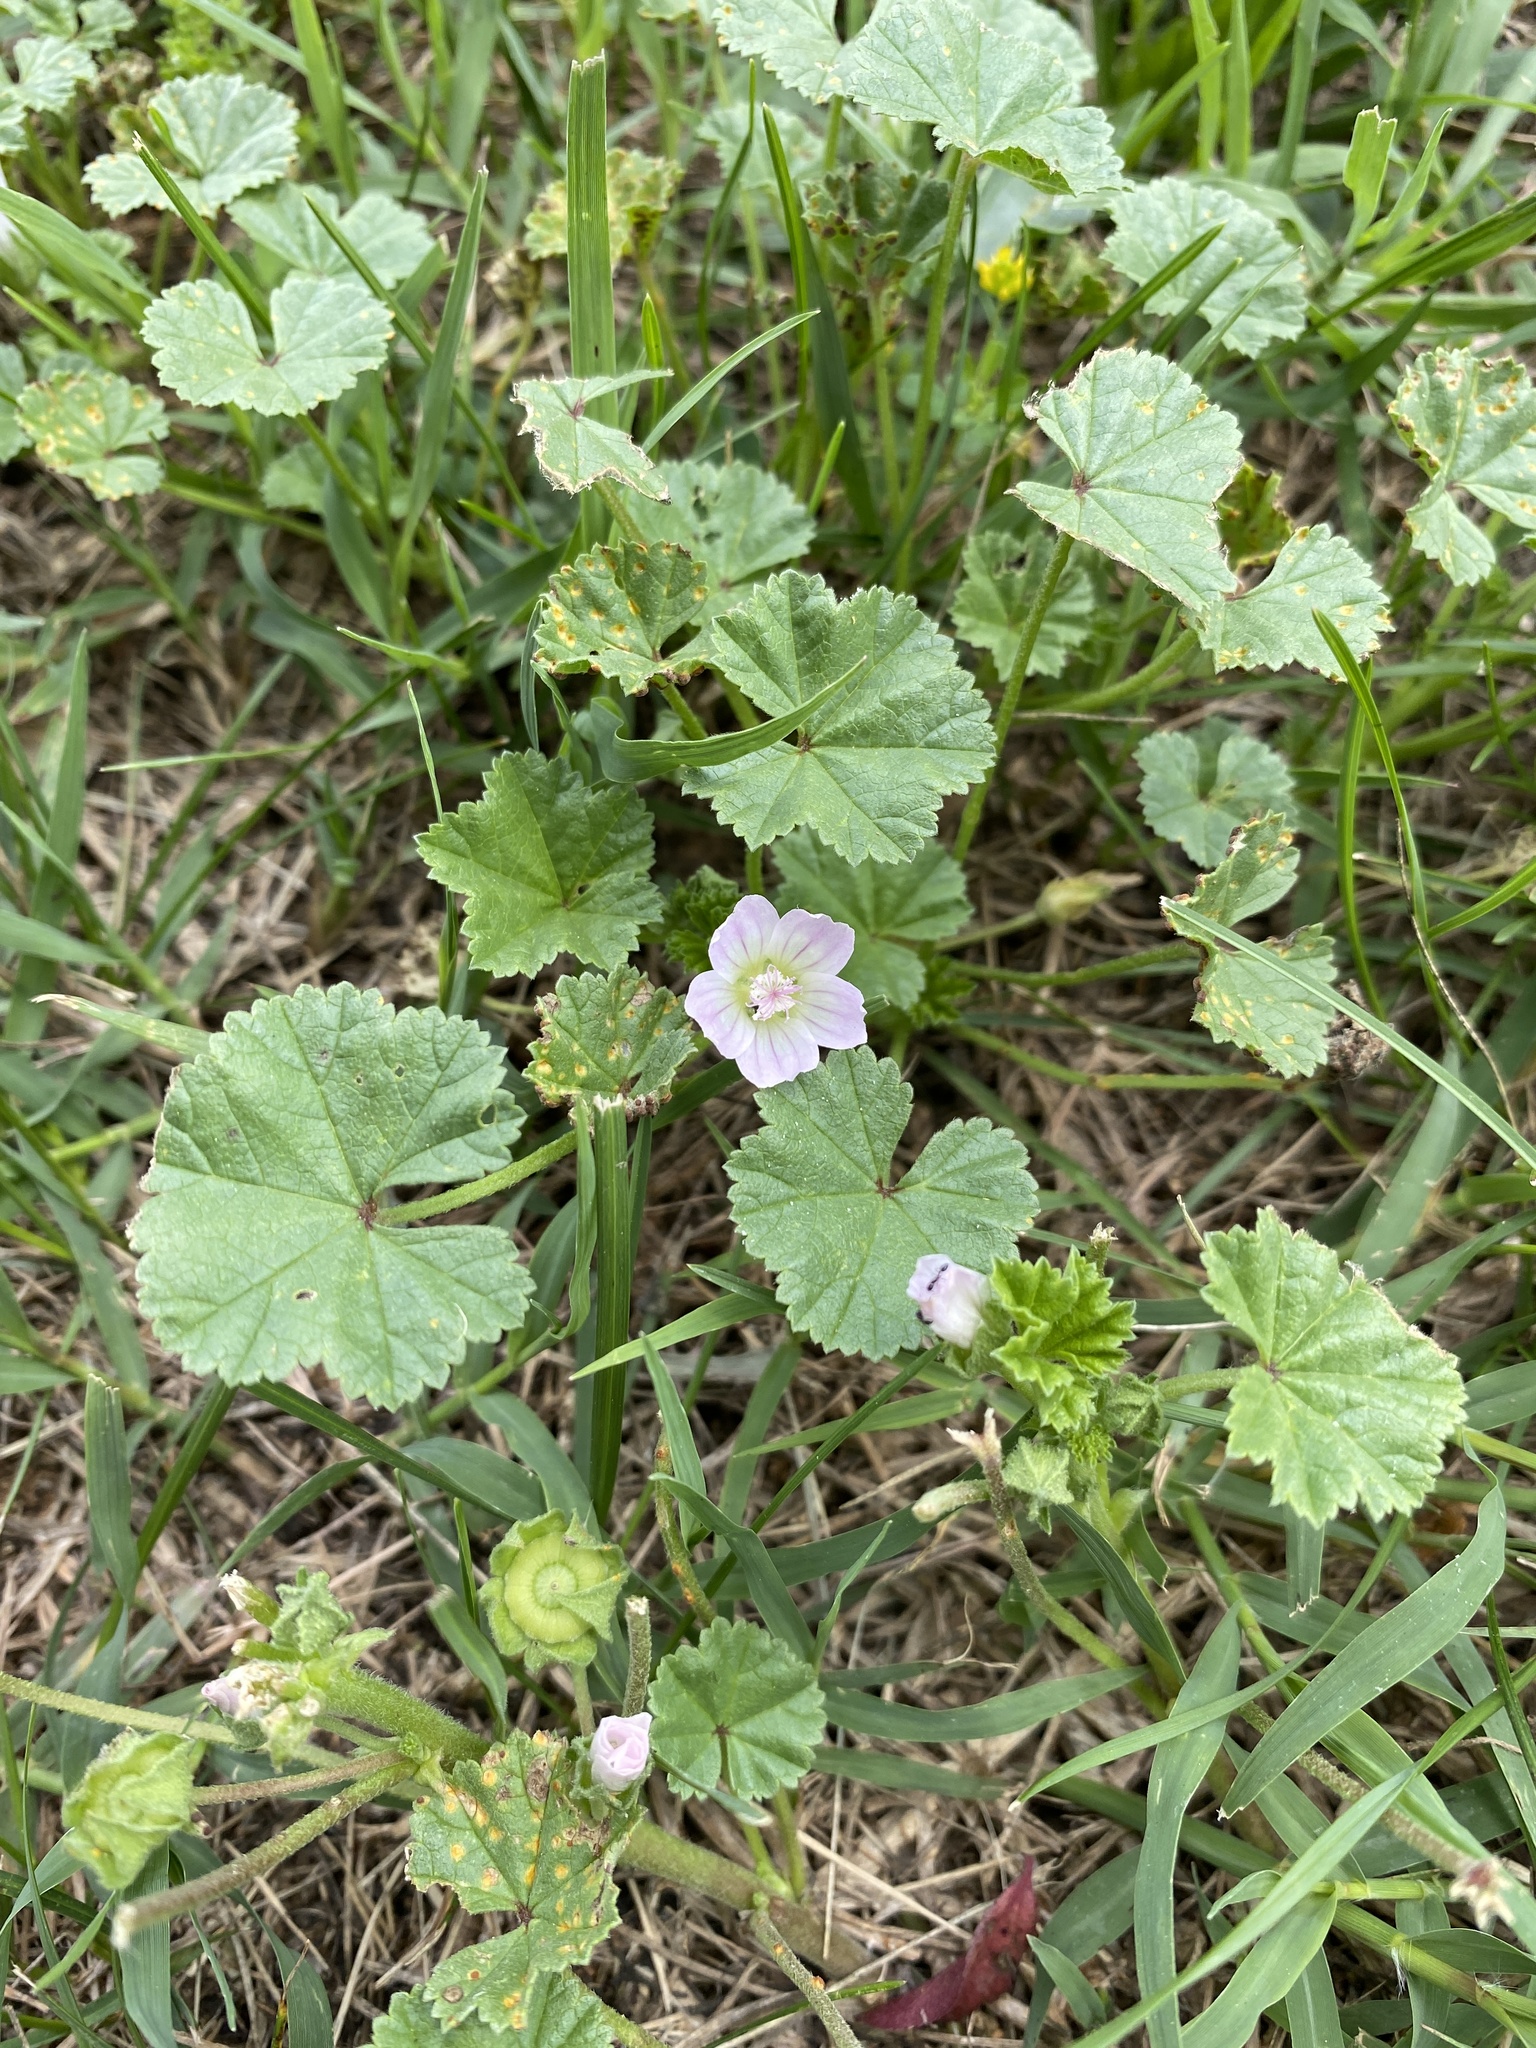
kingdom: Plantae
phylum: Tracheophyta
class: Magnoliopsida
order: Malvales
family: Malvaceae
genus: Malva
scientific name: Malva neglecta
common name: Common mallow
